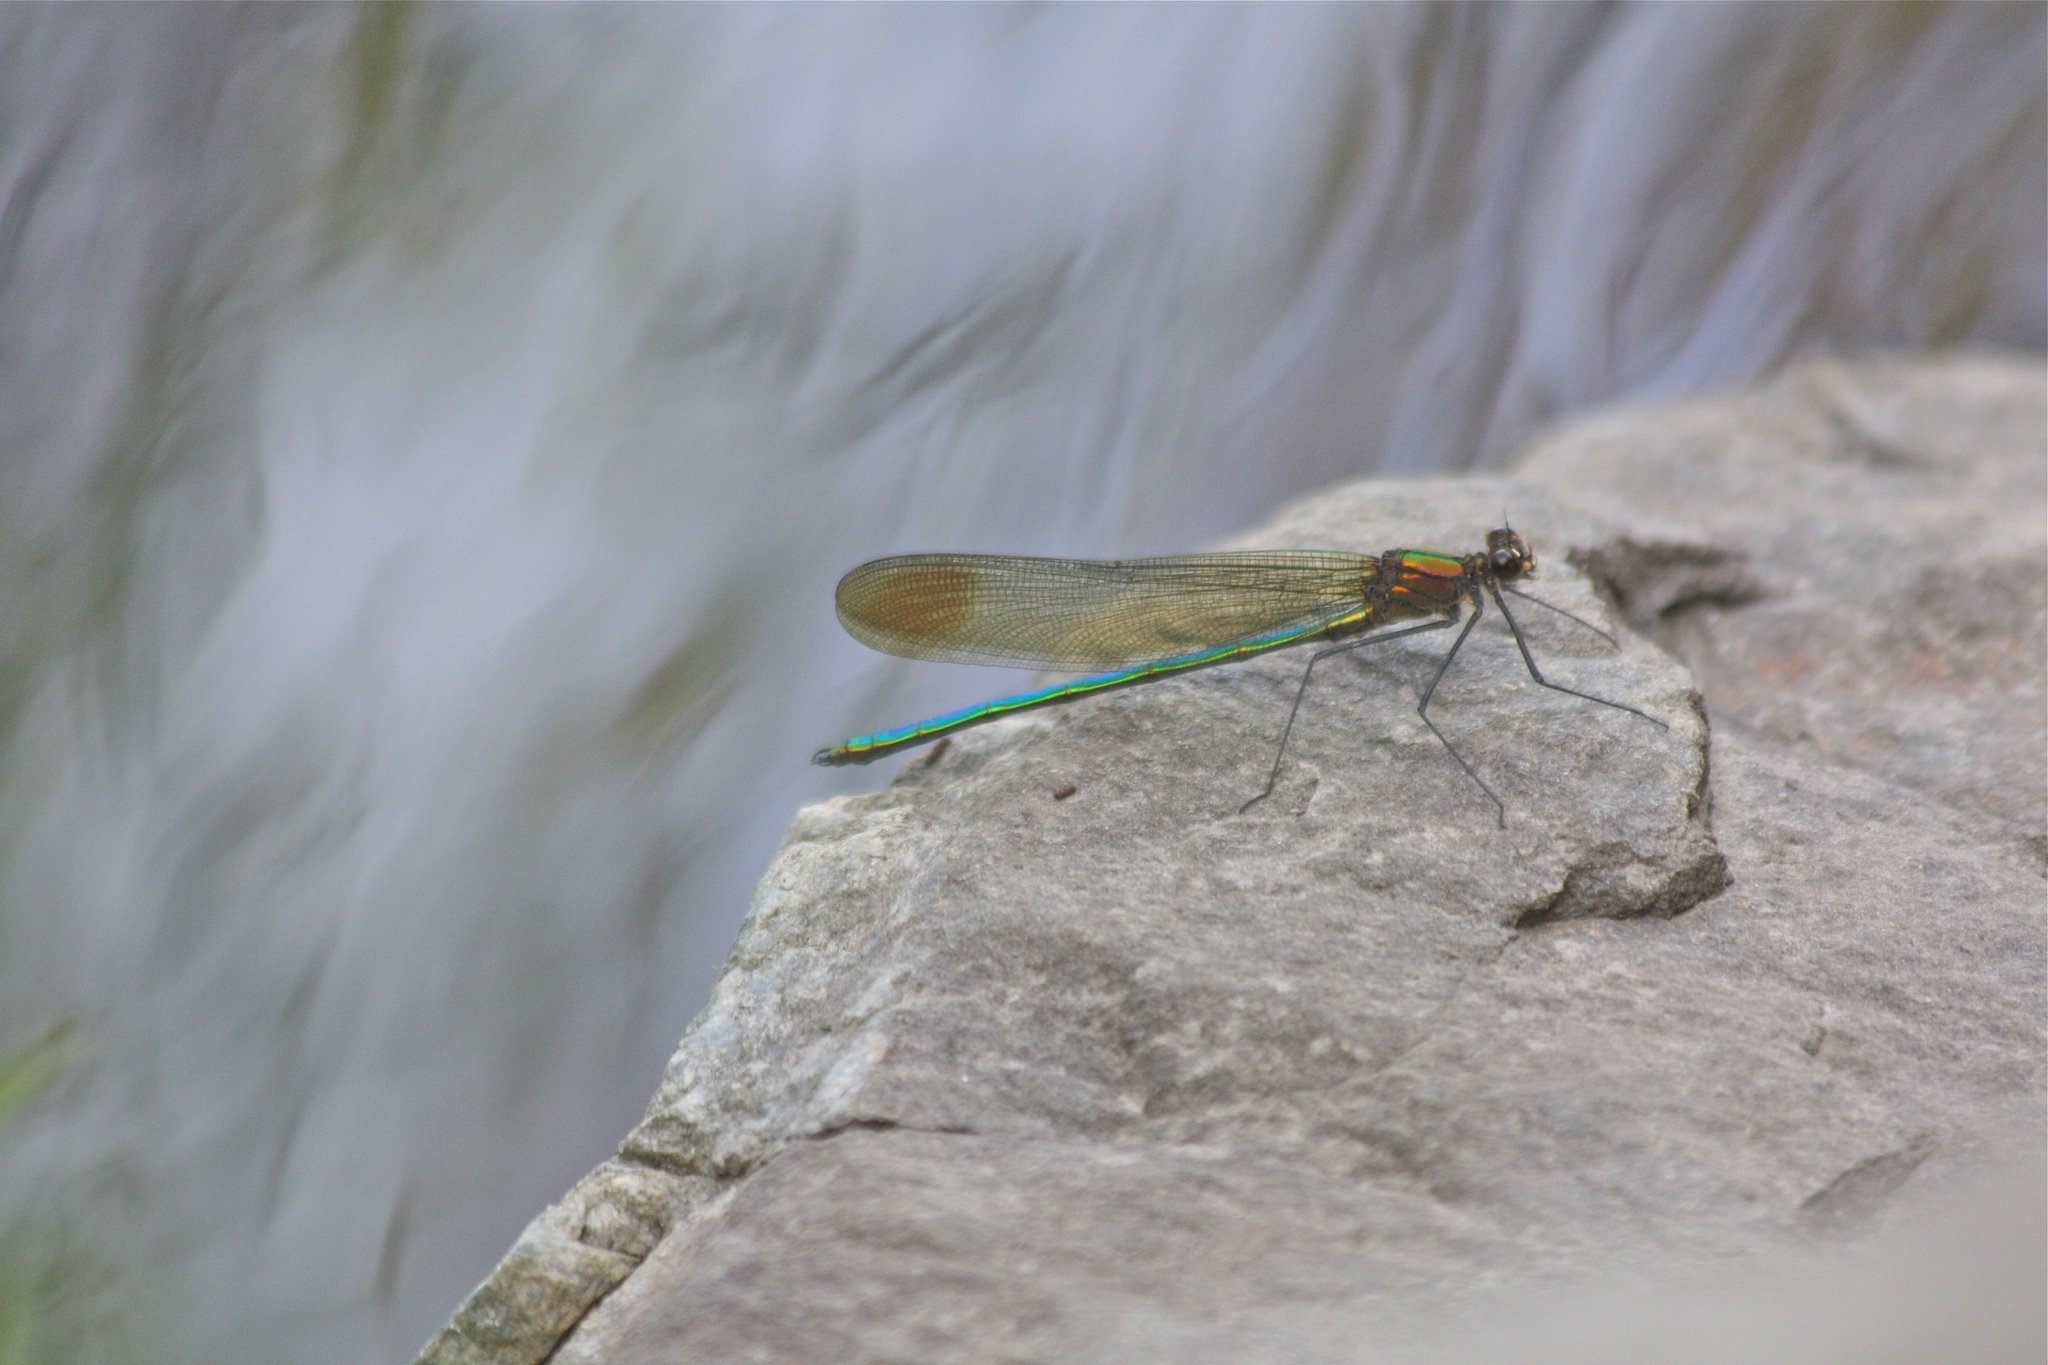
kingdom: Animalia
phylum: Arthropoda
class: Insecta
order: Odonata
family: Calopterygidae
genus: Calopteryx
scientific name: Calopteryx amata
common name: Superb jewelwing
